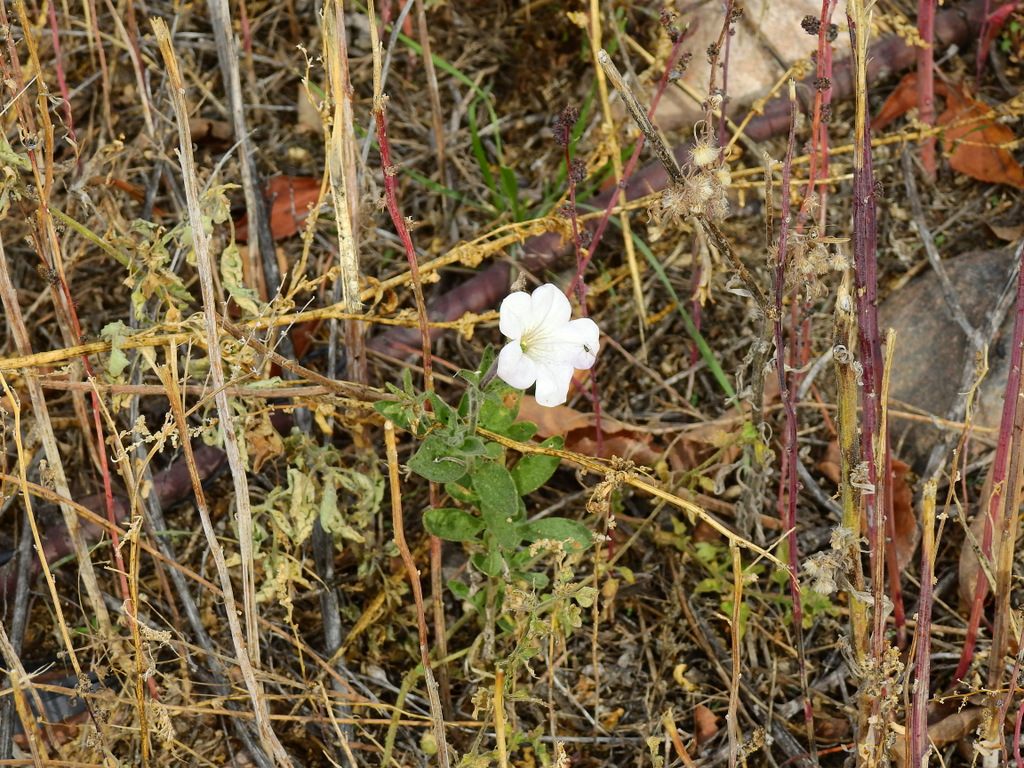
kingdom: Plantae
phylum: Tracheophyta
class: Magnoliopsida
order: Solanales
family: Solanaceae
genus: Petunia
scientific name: Petunia axillaris
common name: Large white petunia
